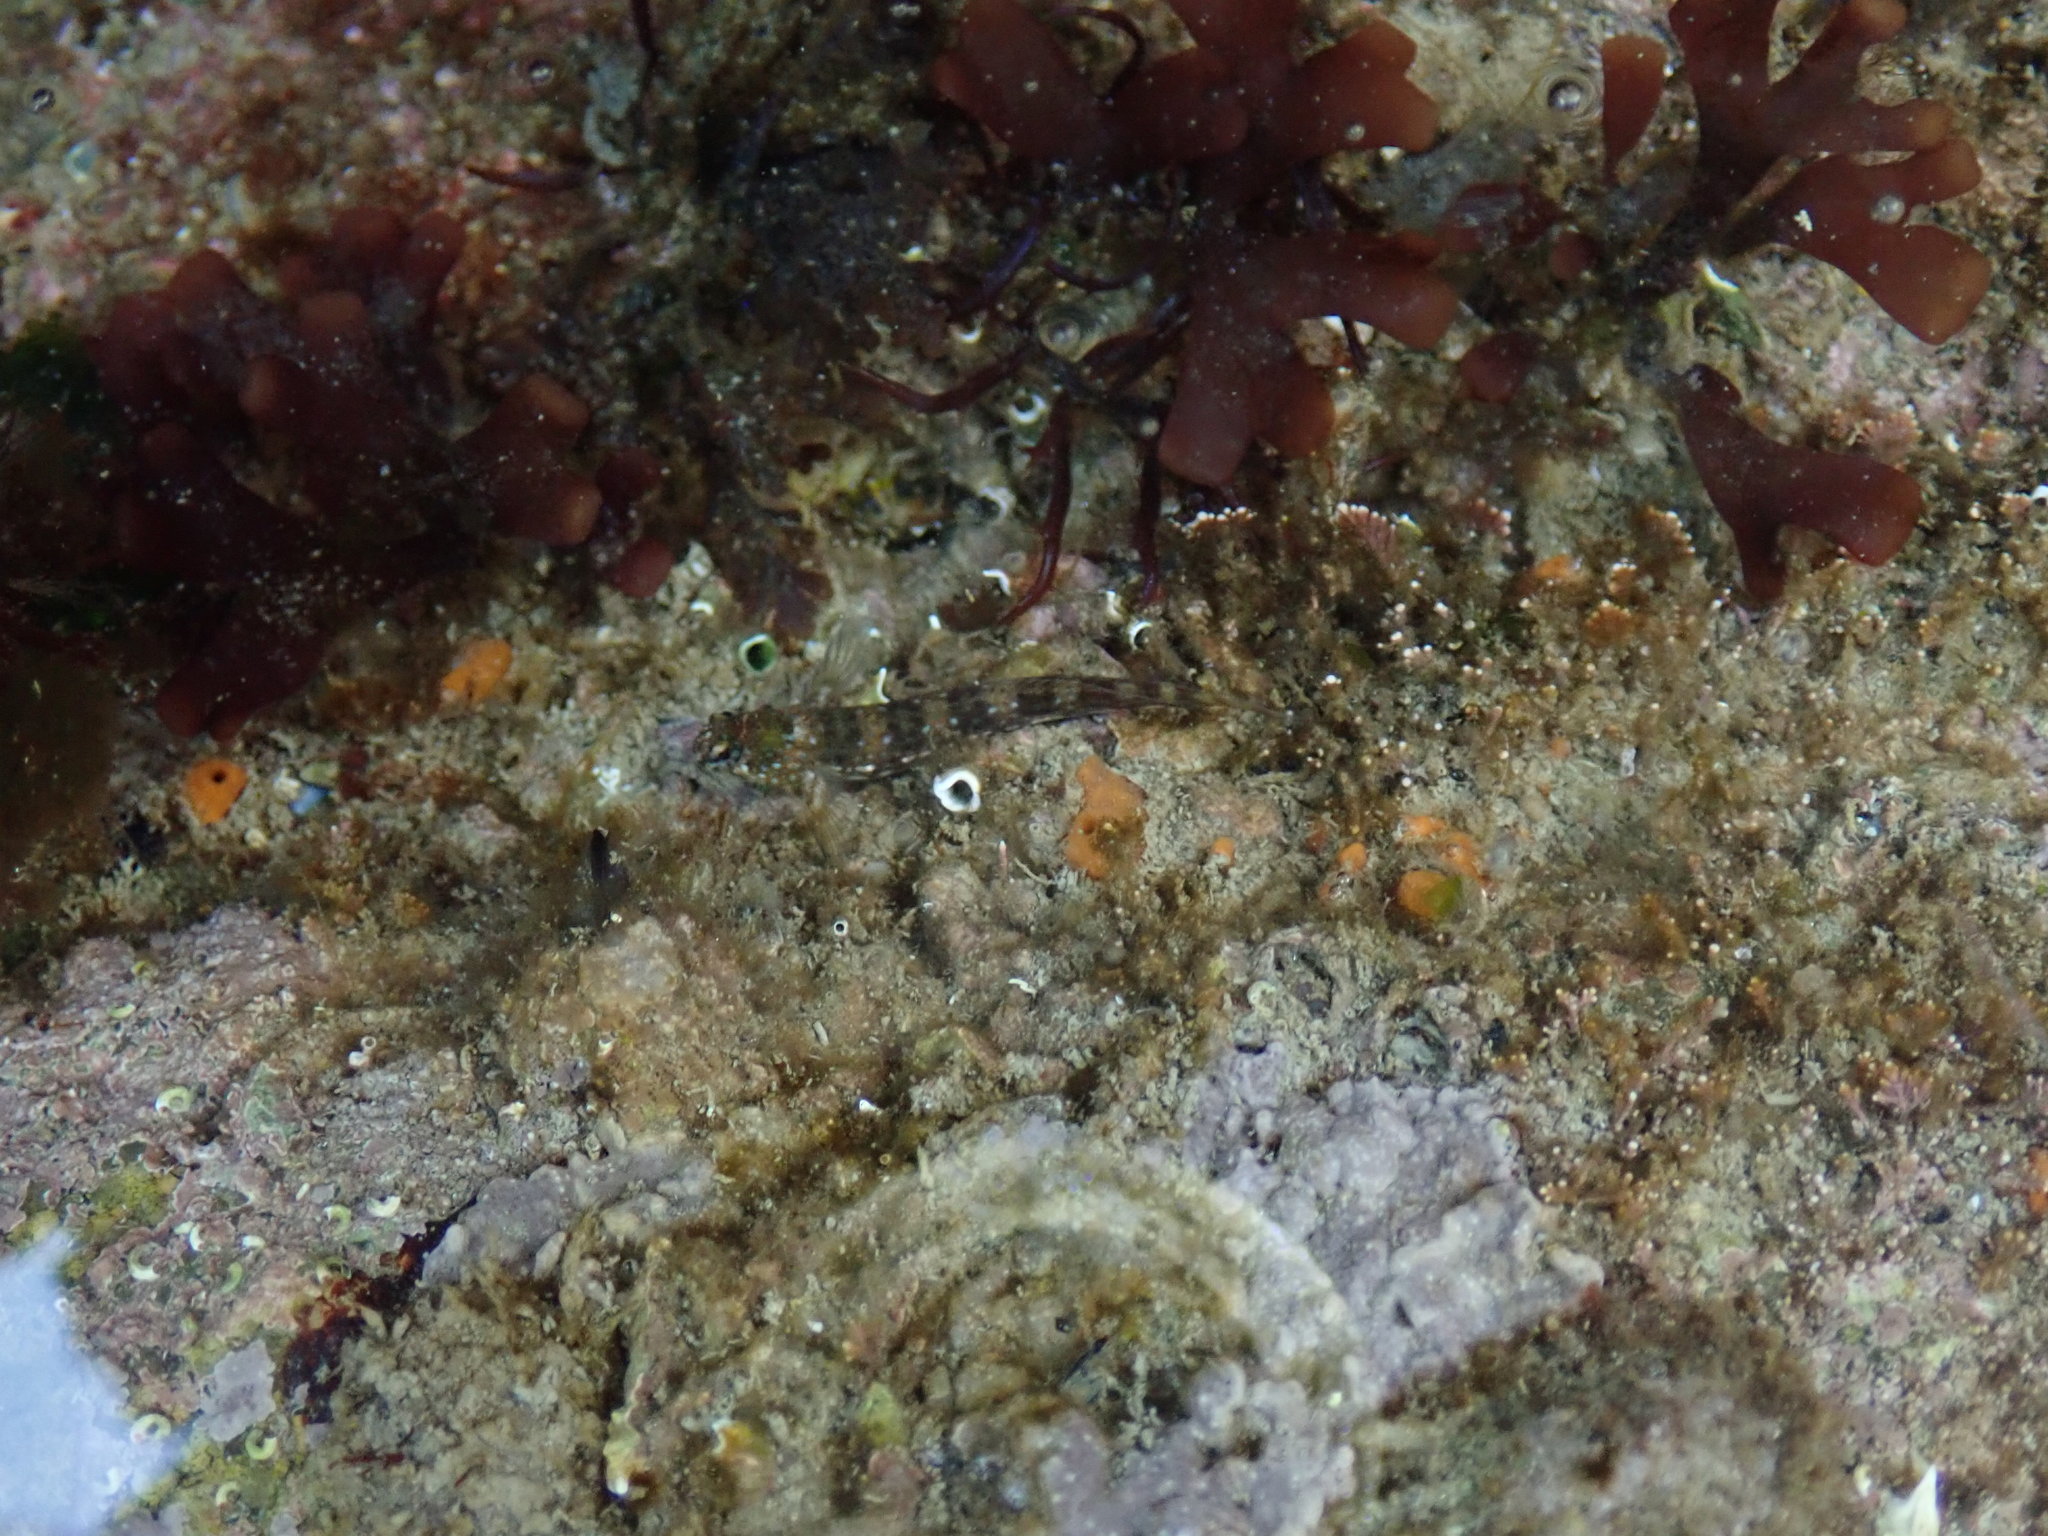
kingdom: Animalia
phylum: Chordata
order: Perciformes
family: Blenniidae
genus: Coryphoblennius
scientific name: Coryphoblennius galerita
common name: Montagu's blenny
